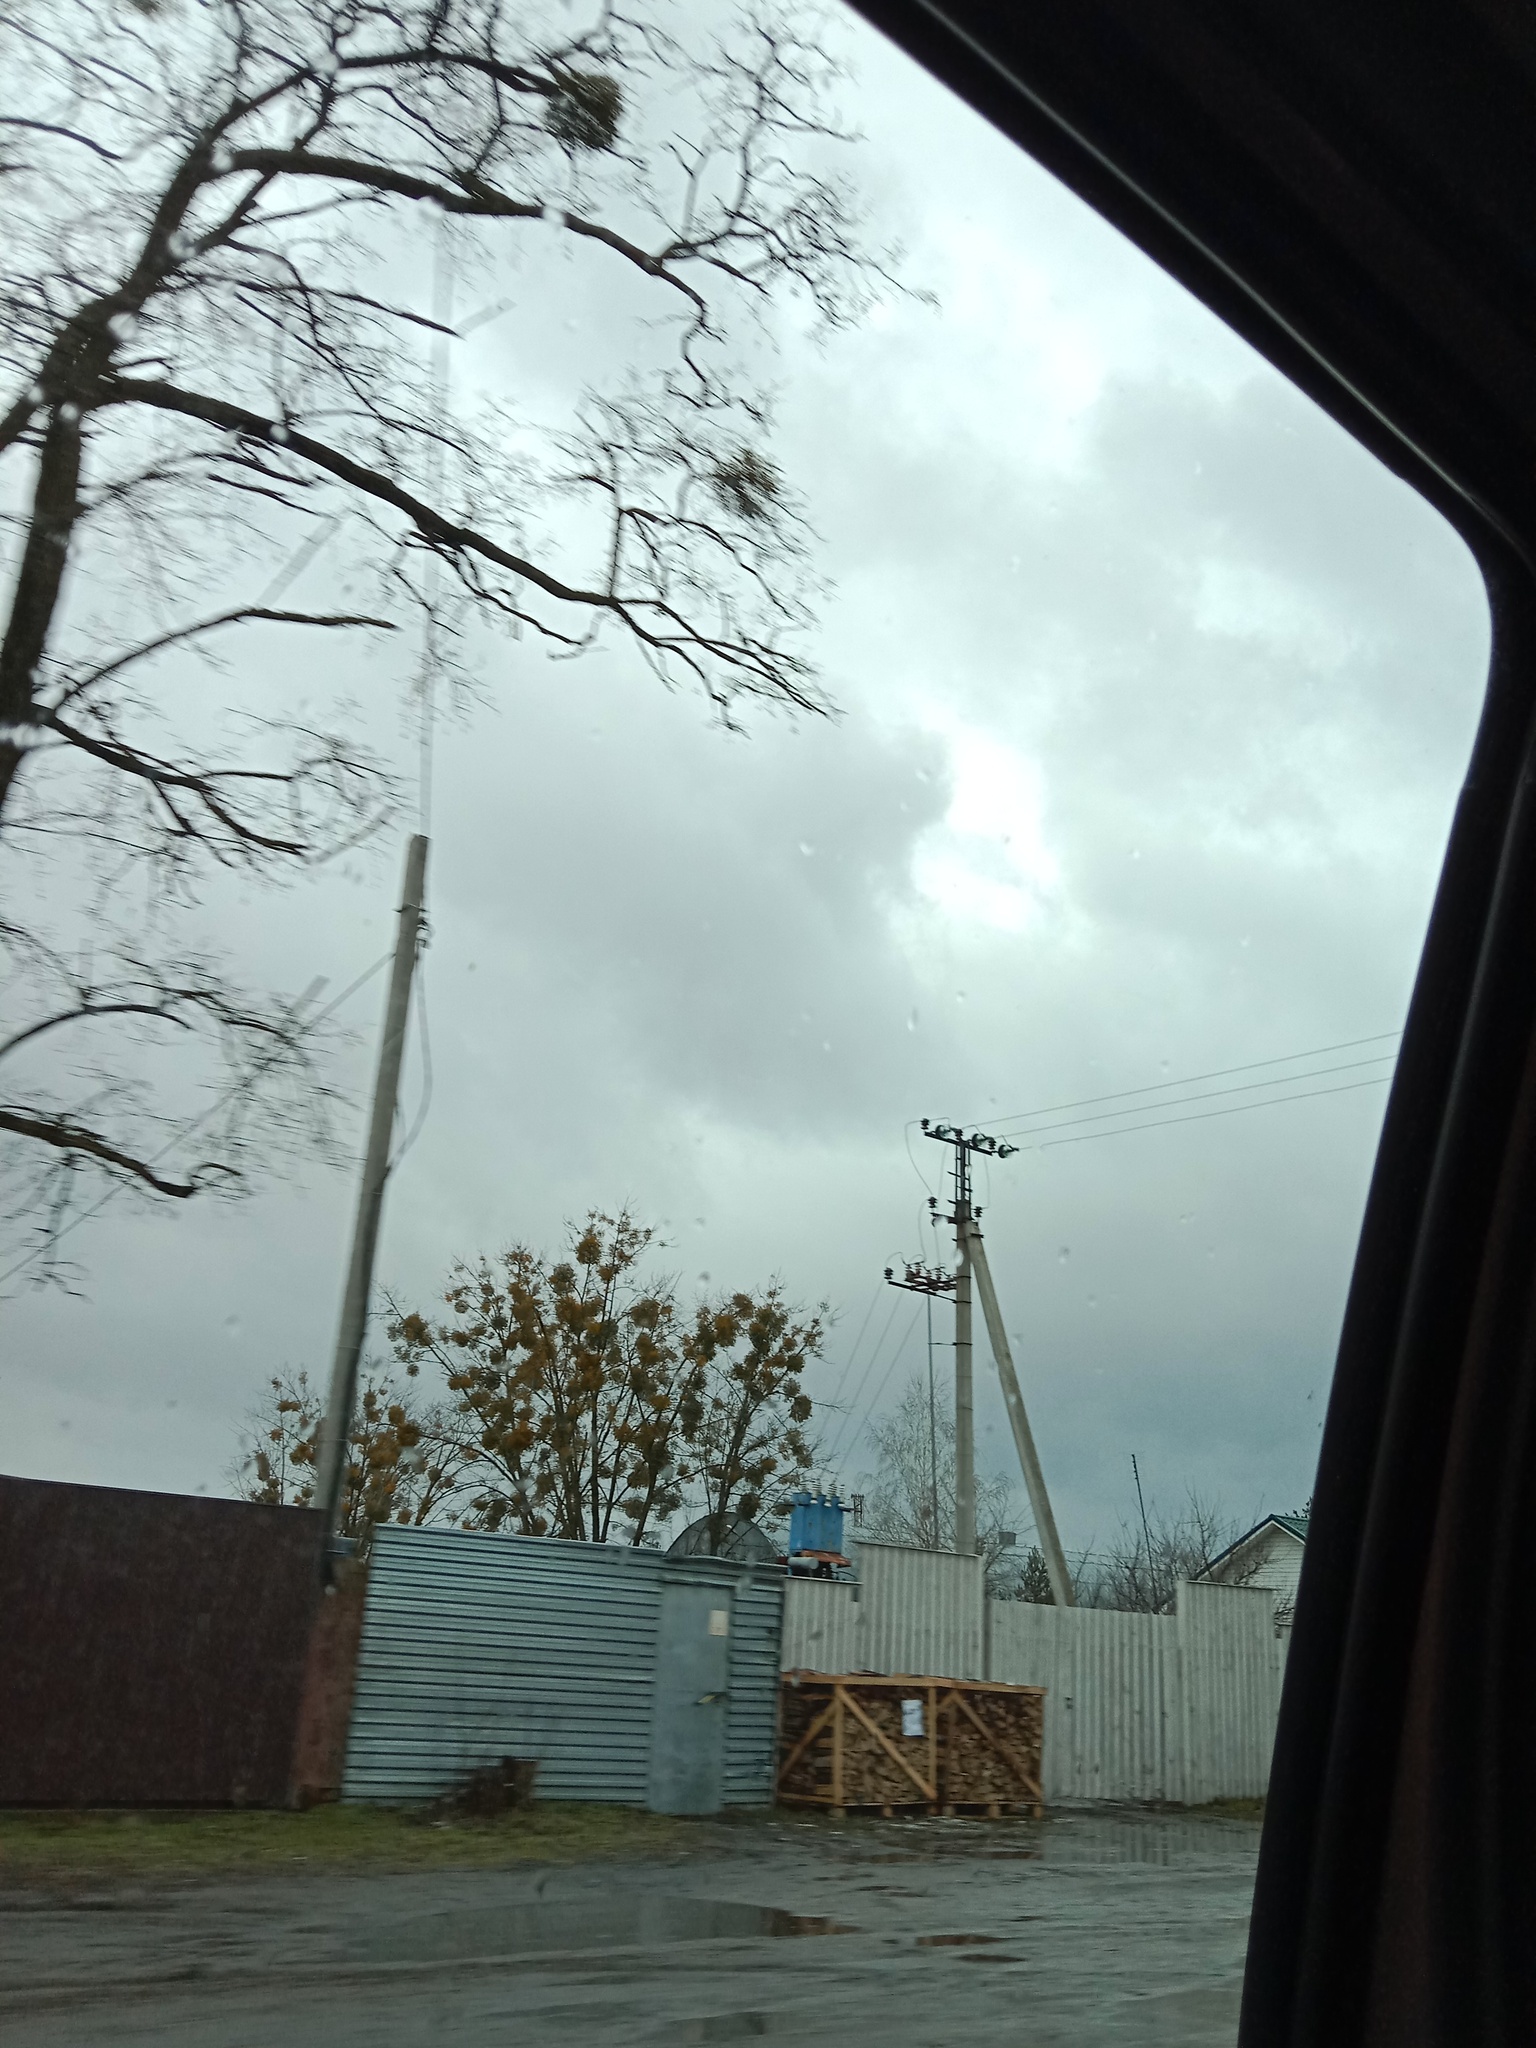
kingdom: Plantae
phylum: Tracheophyta
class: Magnoliopsida
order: Santalales
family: Viscaceae
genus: Viscum
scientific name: Viscum album
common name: Mistletoe
